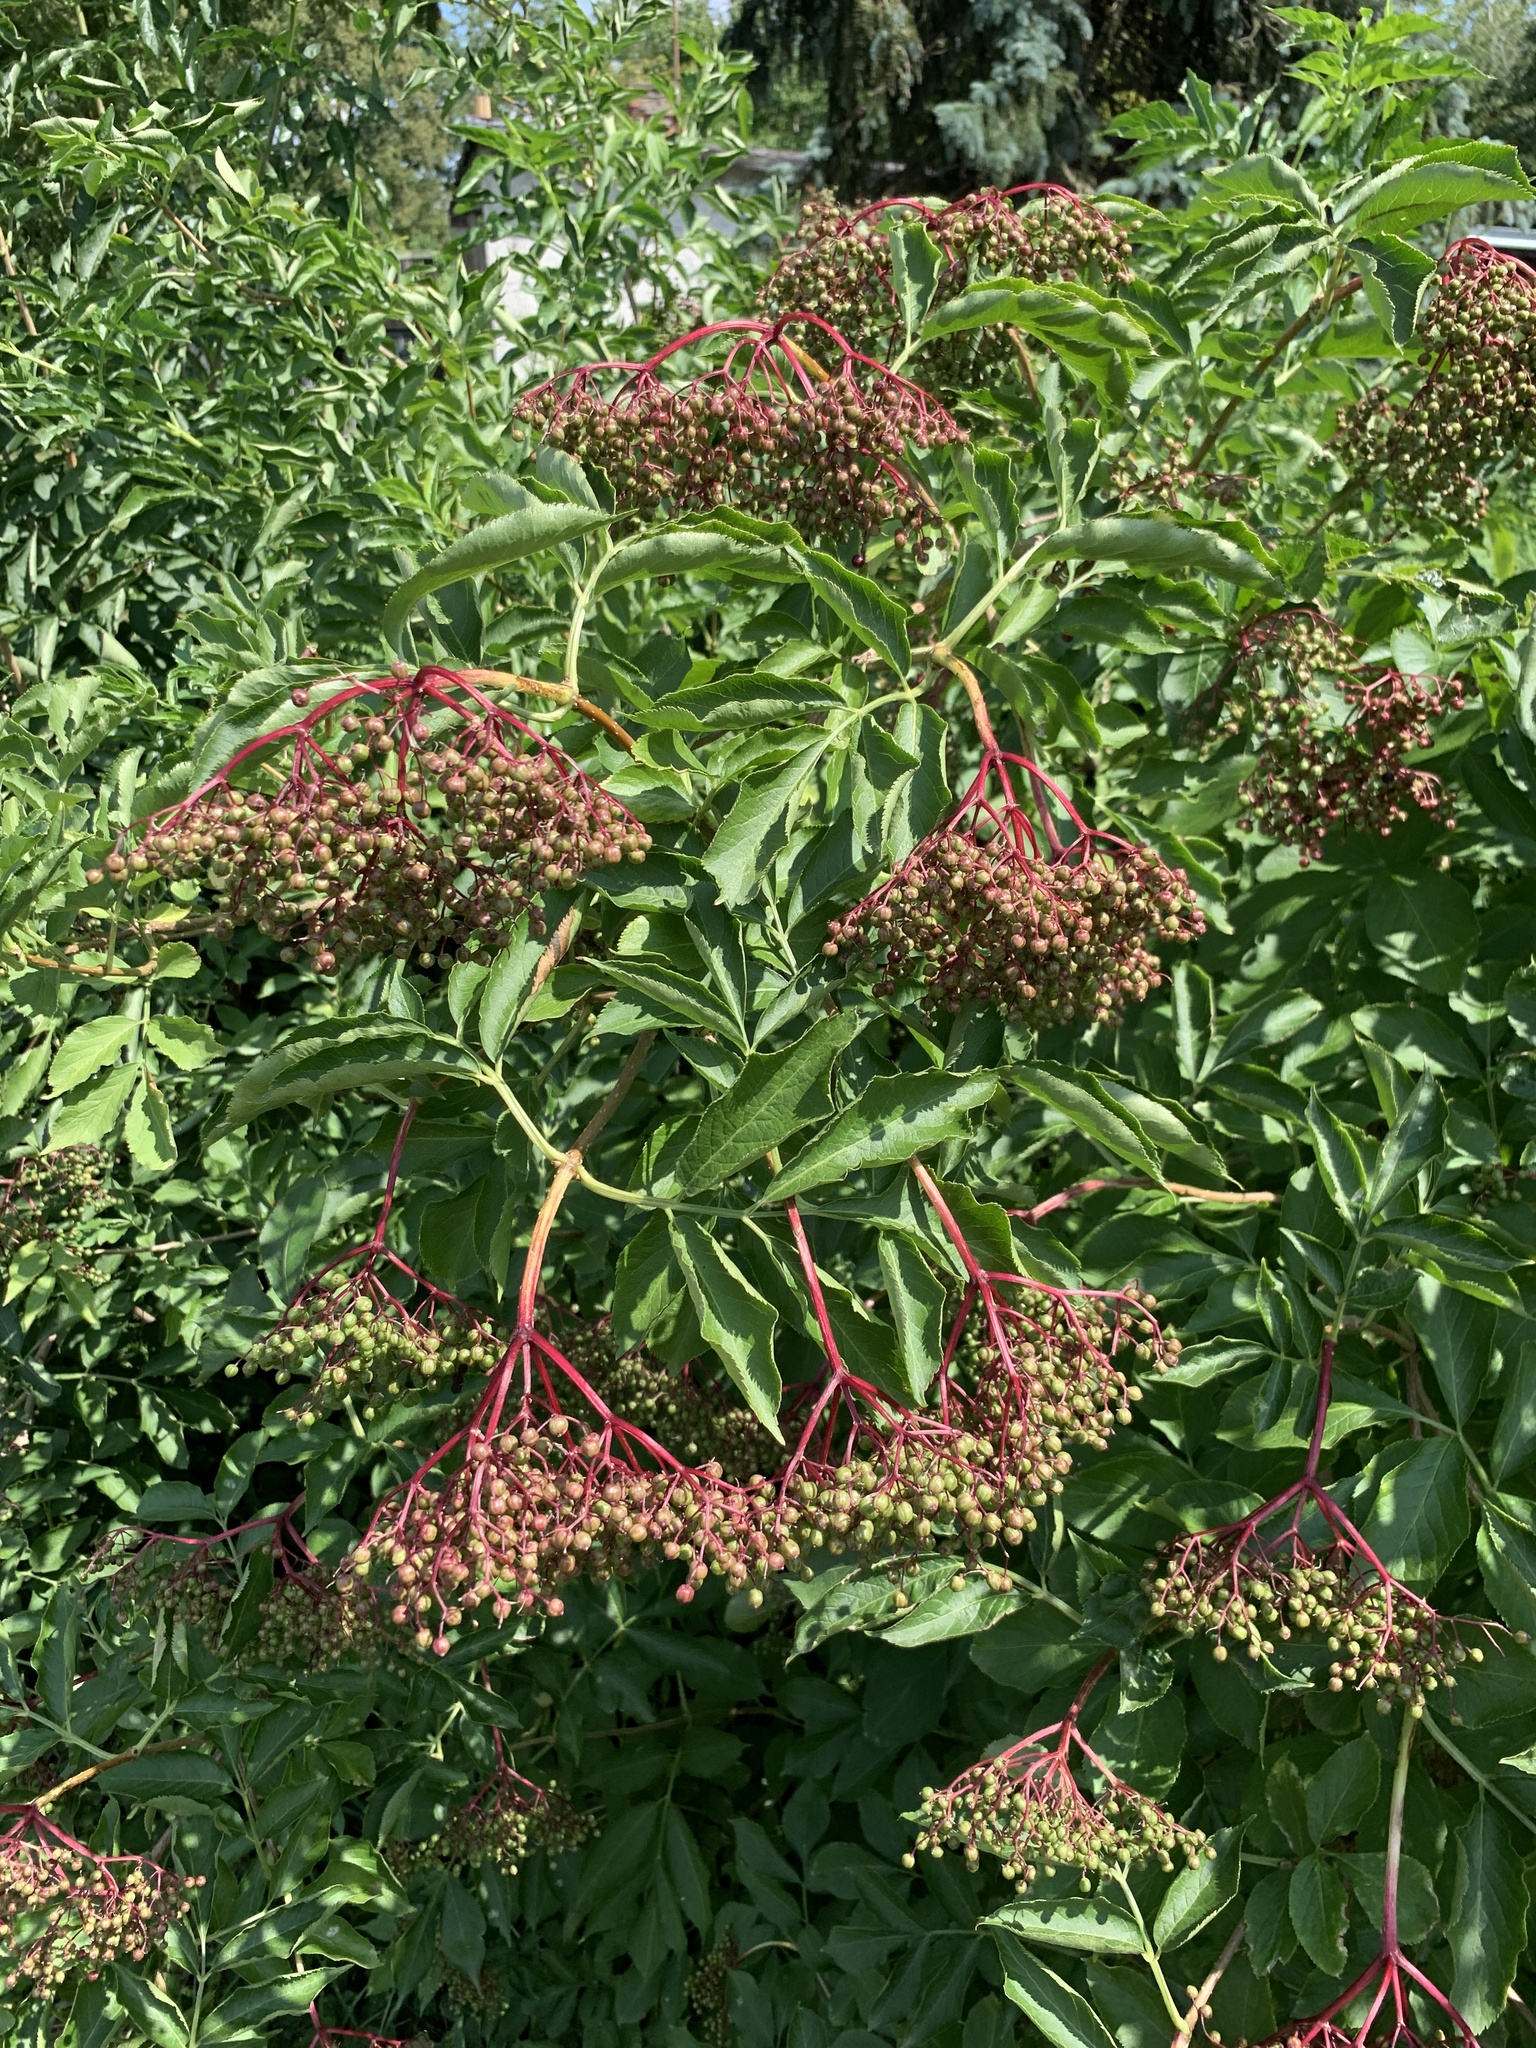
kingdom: Plantae
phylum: Tracheophyta
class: Magnoliopsida
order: Dipsacales
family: Viburnaceae
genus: Sambucus
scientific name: Sambucus nigra
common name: Elder
